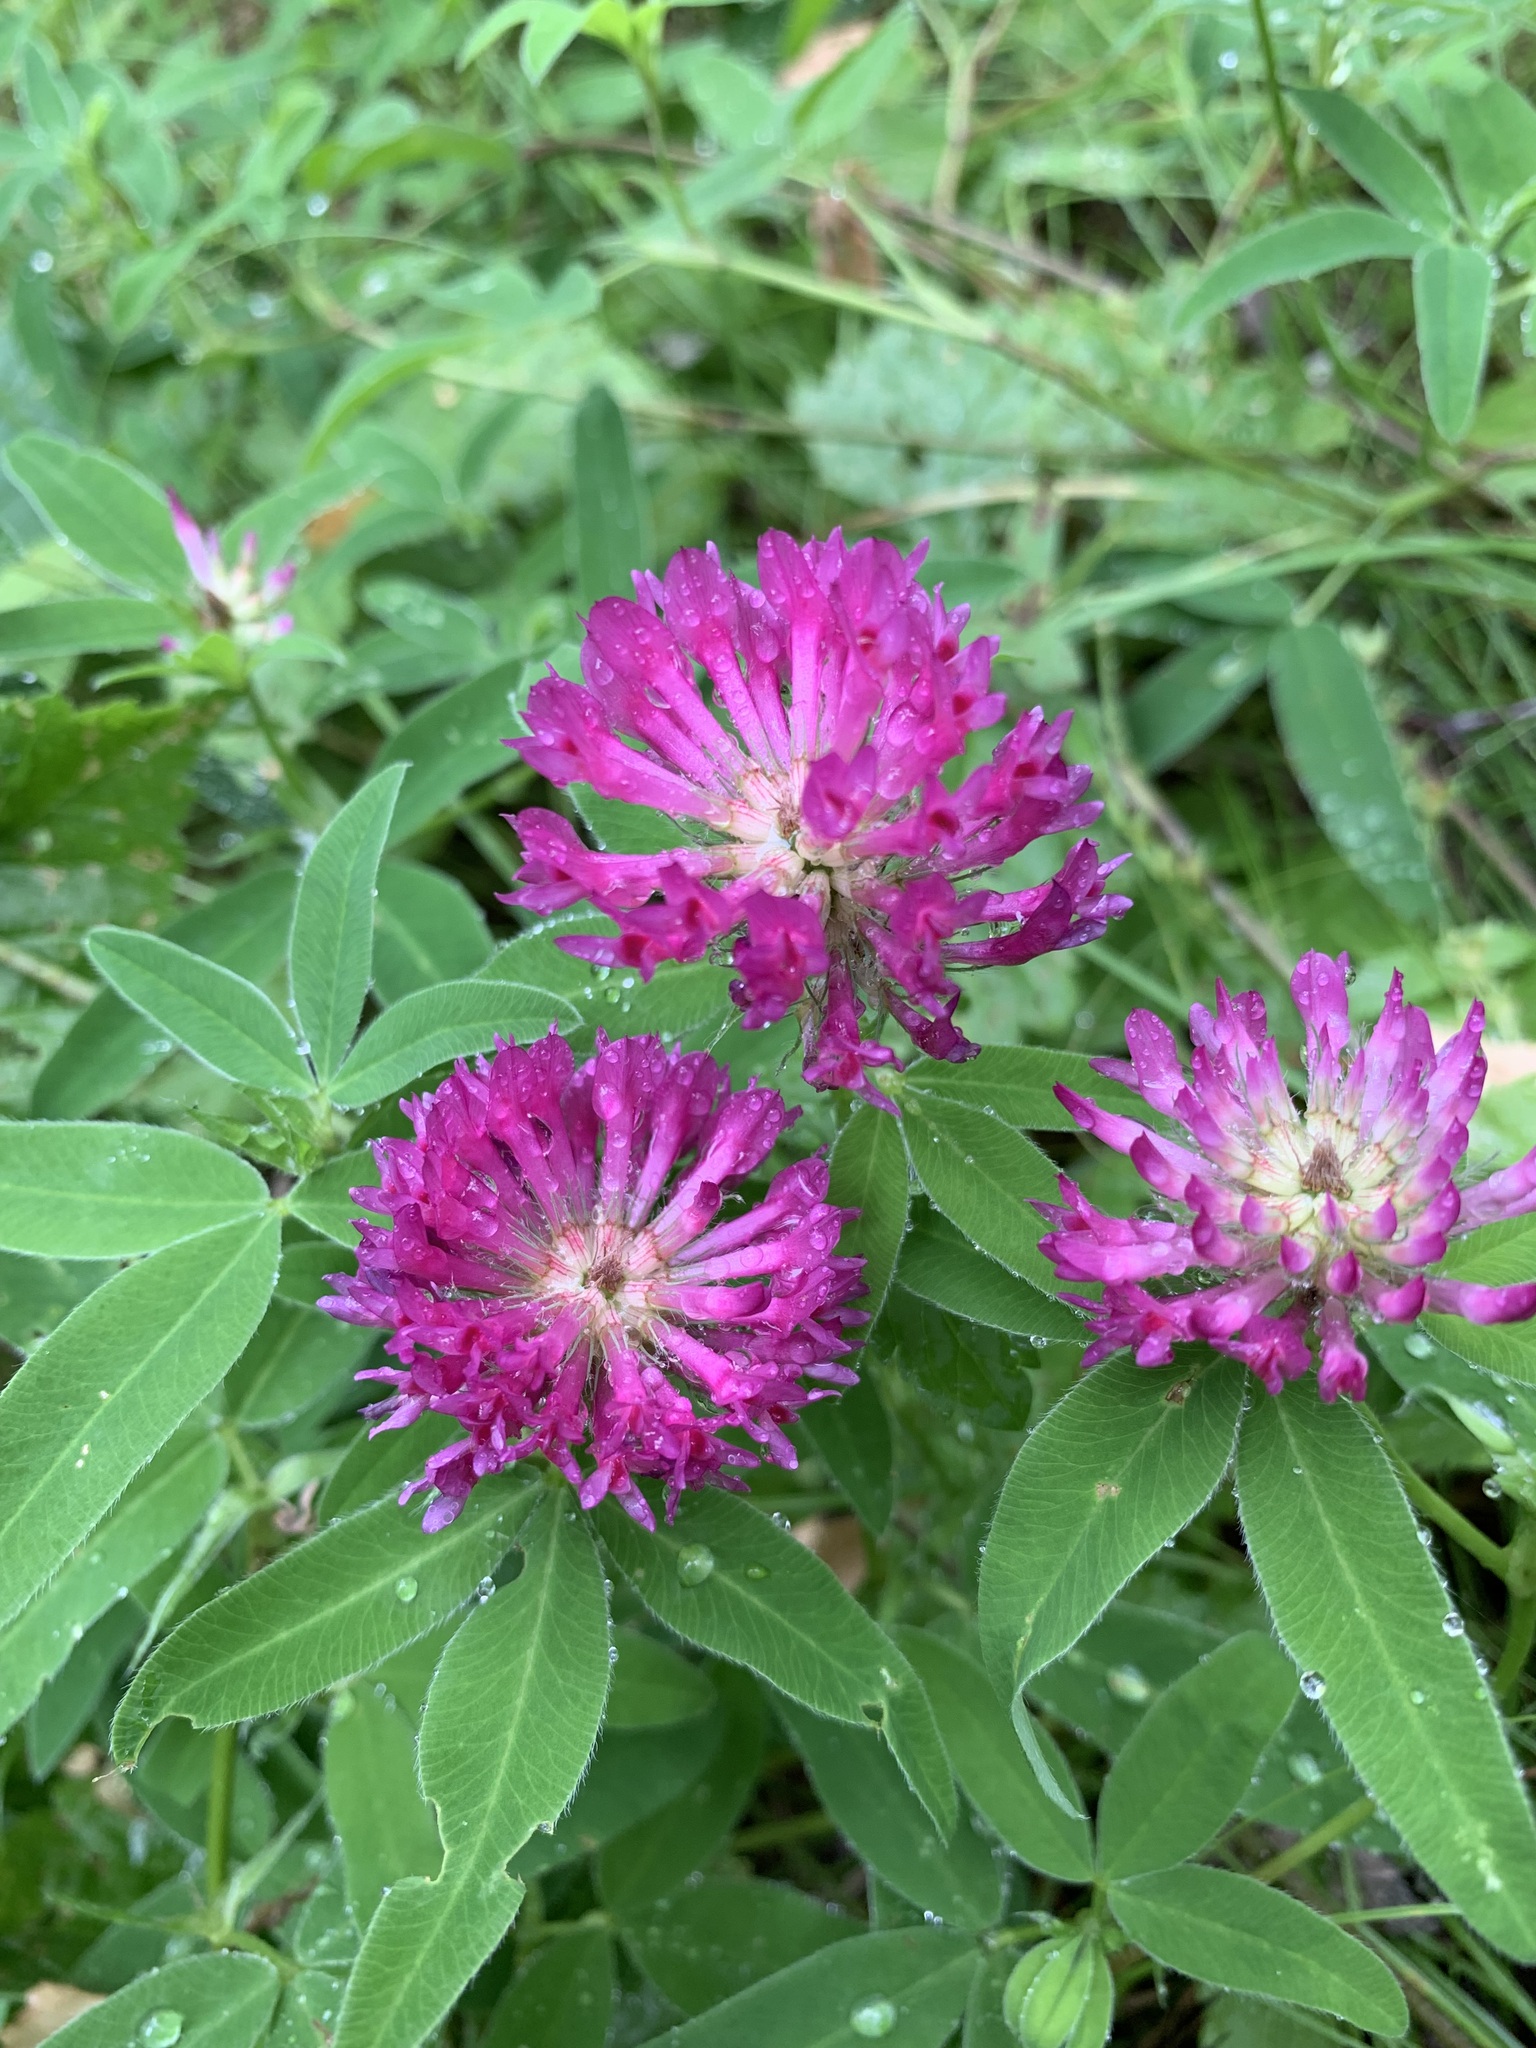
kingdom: Plantae
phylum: Tracheophyta
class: Magnoliopsida
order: Fabales
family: Fabaceae
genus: Trifolium
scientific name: Trifolium medium
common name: Zigzag clover
